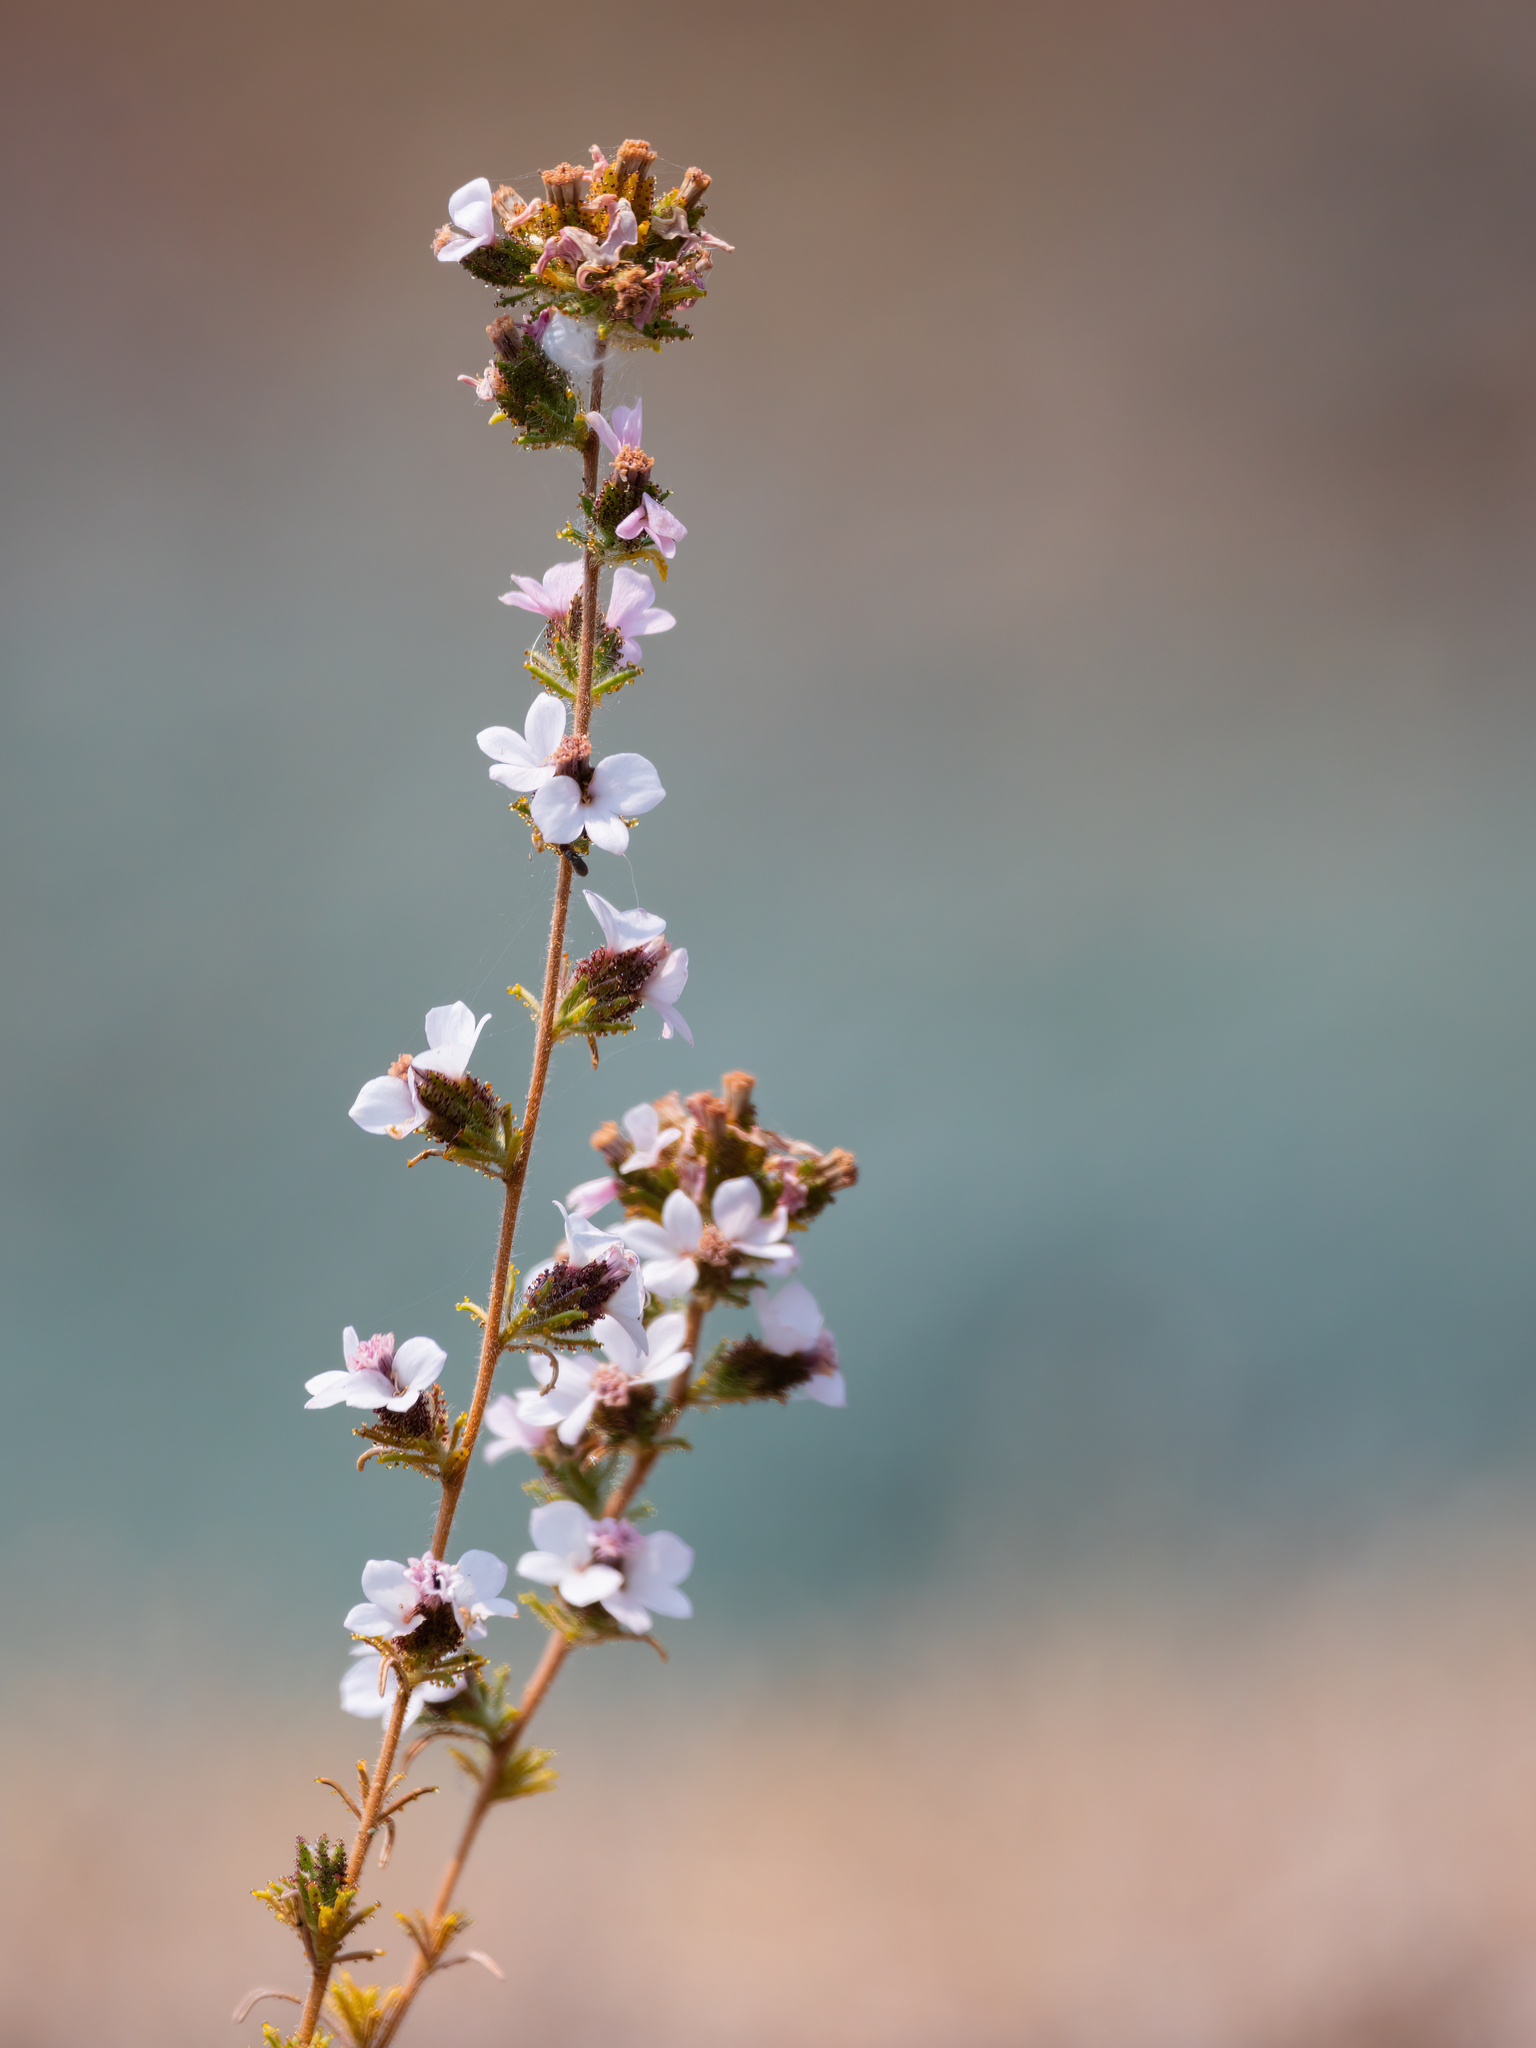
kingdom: Plantae
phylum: Tracheophyta
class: Magnoliopsida
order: Asterales
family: Asteraceae
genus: Calycadenia
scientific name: Calycadenia multiglandulosa
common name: Sticky calycadenia
